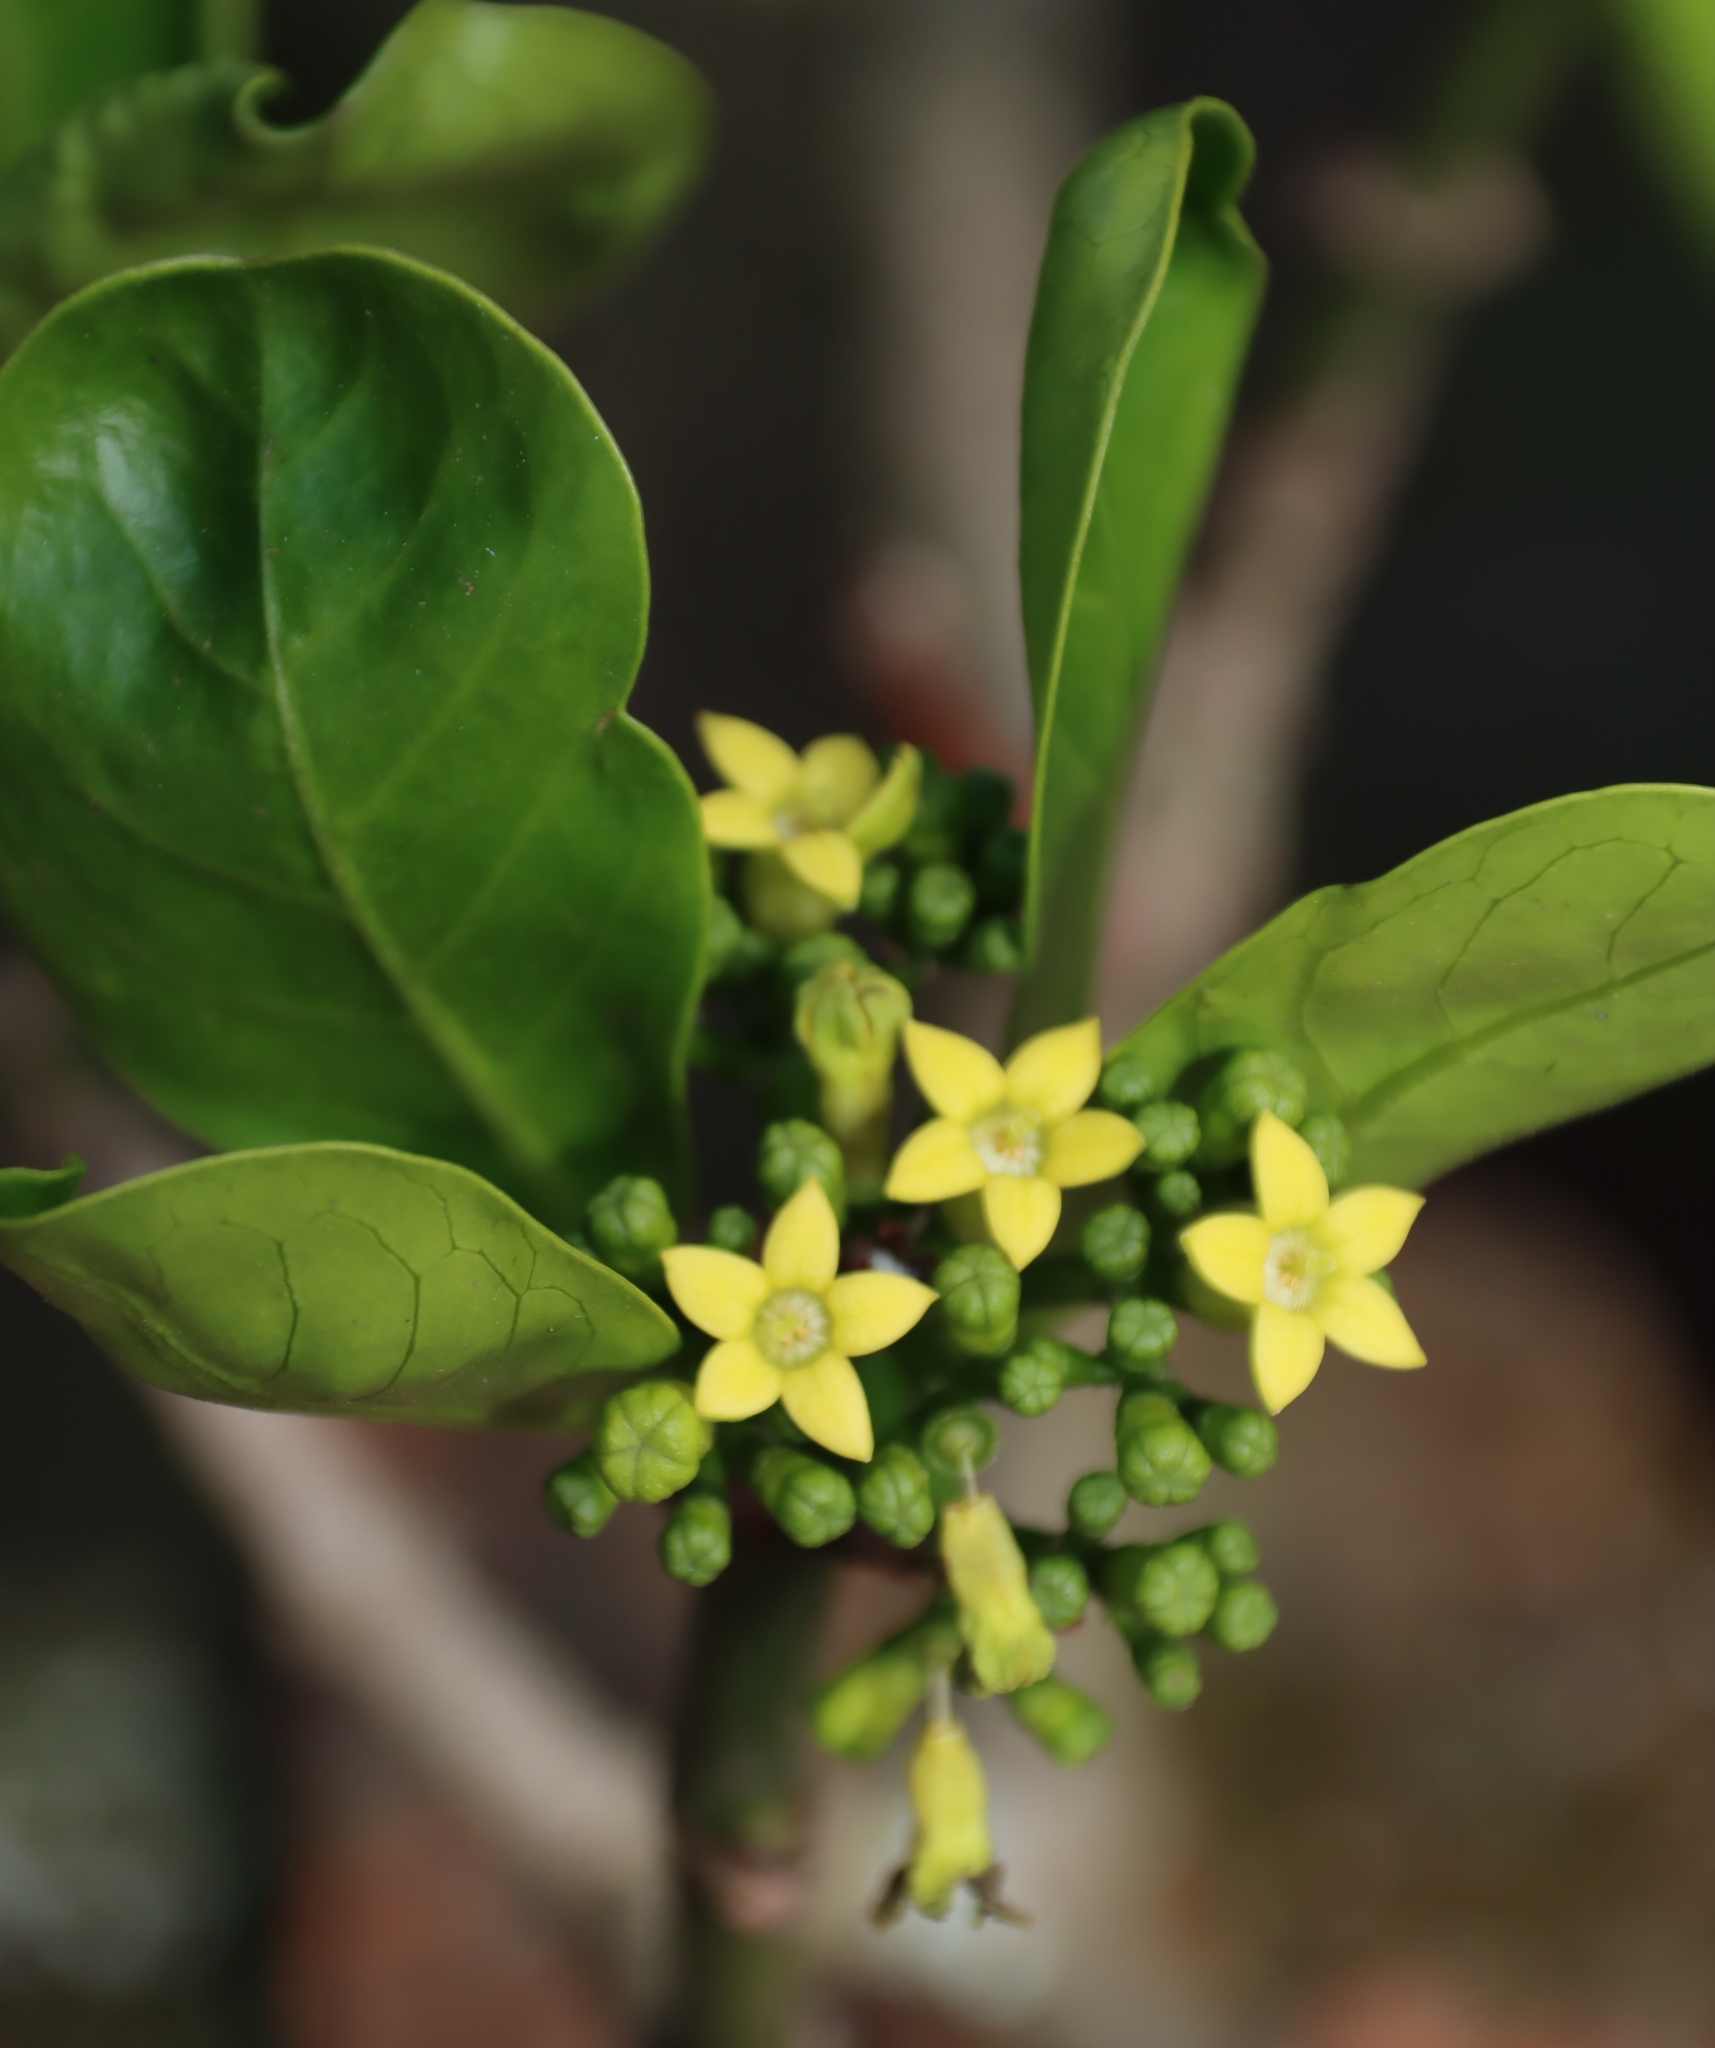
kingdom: Plantae
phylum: Tracheophyta
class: Magnoliopsida
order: Gentianales
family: Rubiaceae
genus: Psychotria
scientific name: Psychotria
